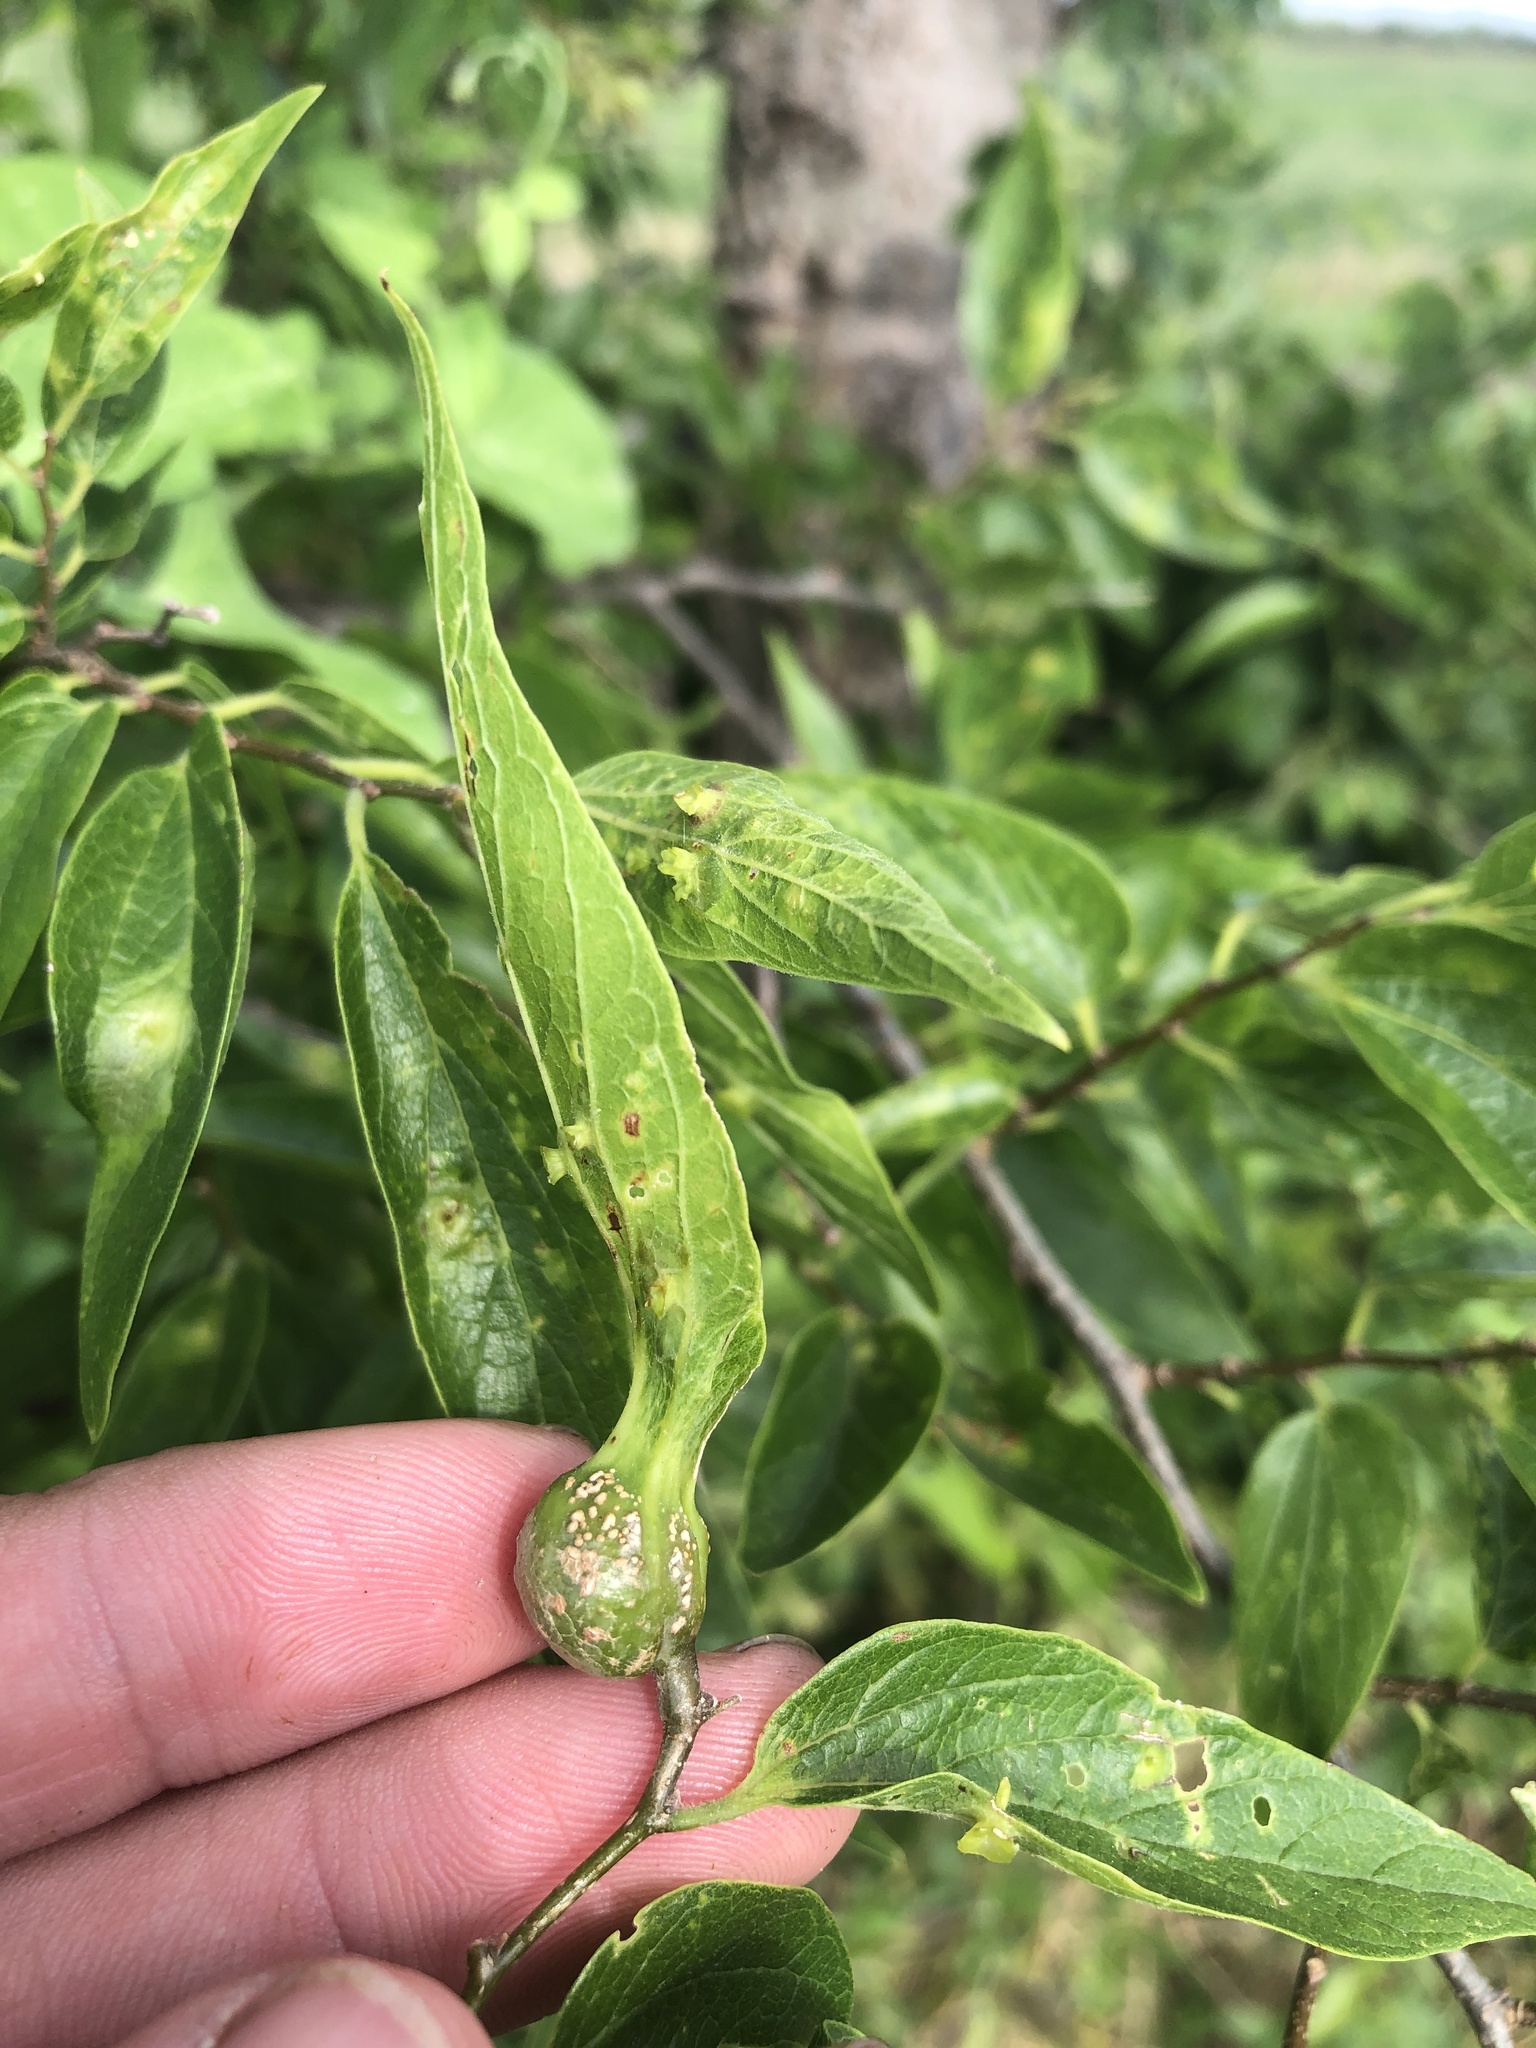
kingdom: Animalia
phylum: Arthropoda
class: Insecta
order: Hemiptera
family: Aphalaridae
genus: Pachypsylla
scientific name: Pachypsylla venusta
